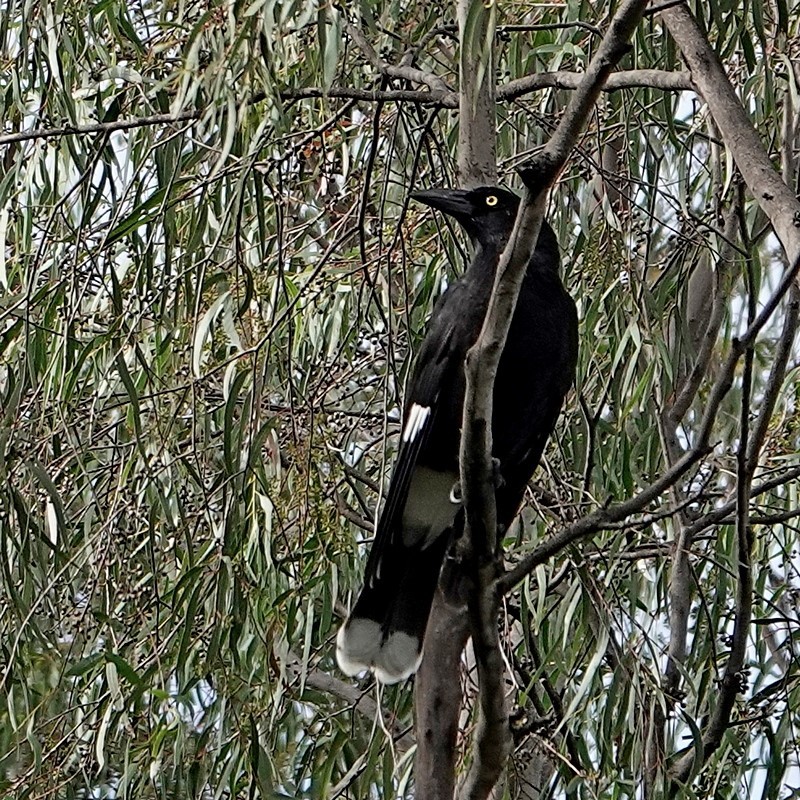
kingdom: Animalia
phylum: Chordata
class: Aves
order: Passeriformes
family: Cracticidae
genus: Strepera
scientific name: Strepera graculina
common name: Pied currawong
